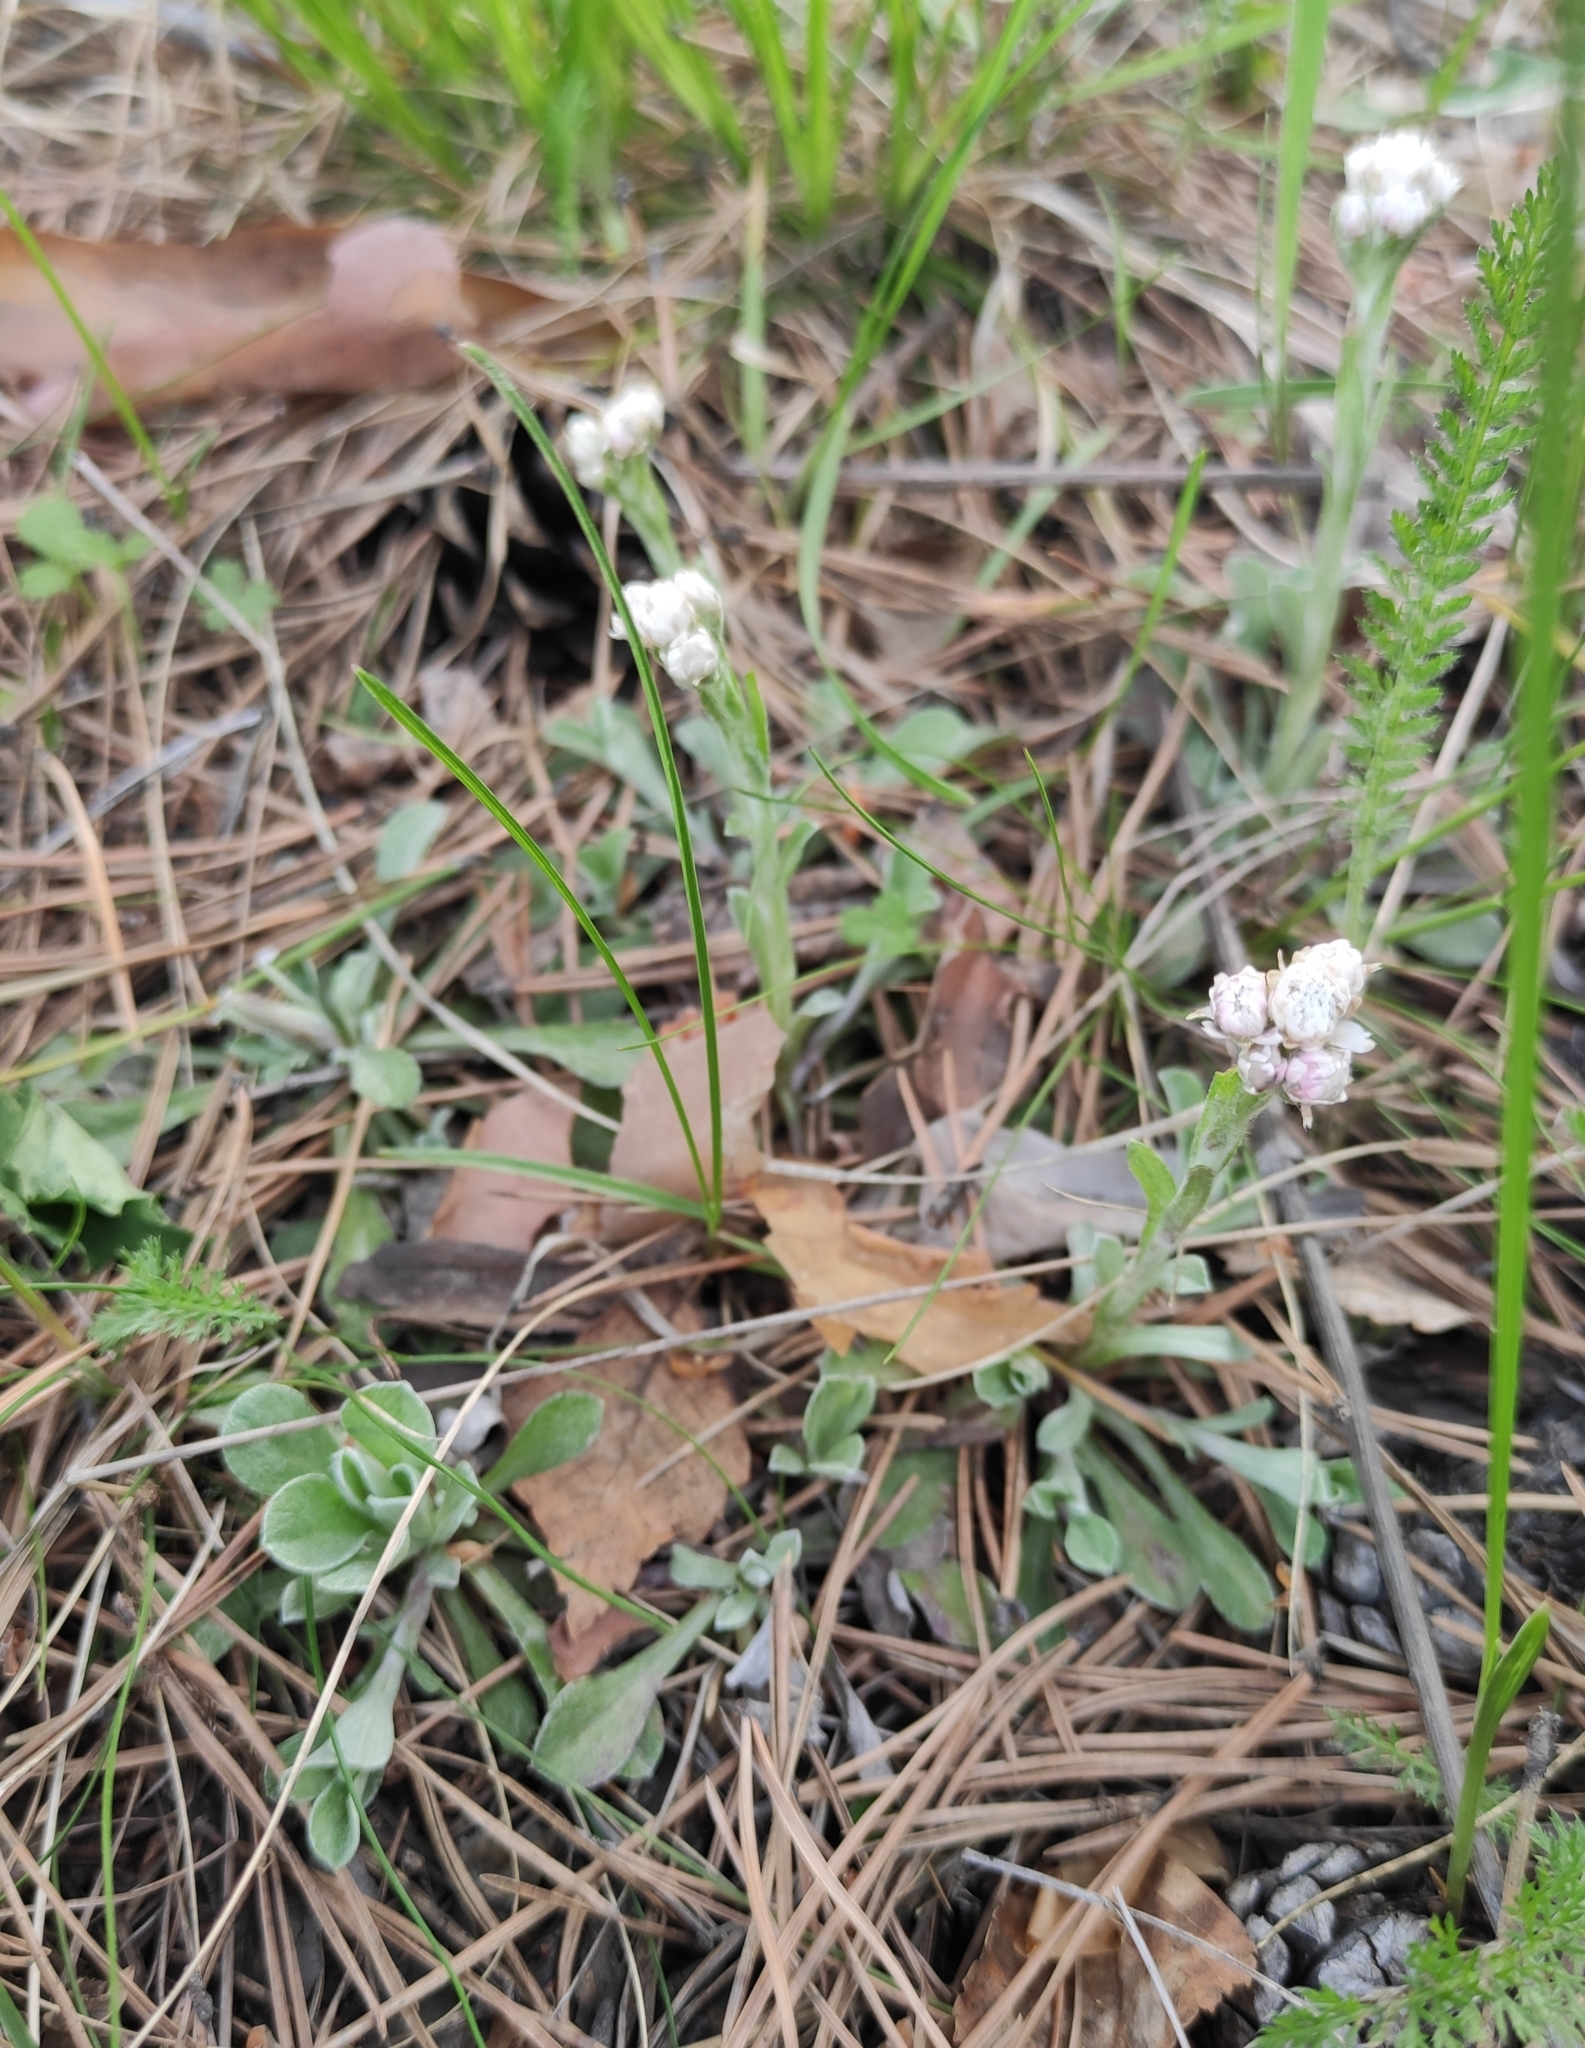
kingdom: Plantae
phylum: Tracheophyta
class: Magnoliopsida
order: Asterales
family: Asteraceae
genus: Antennaria
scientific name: Antennaria dioica
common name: Mountain everlasting
